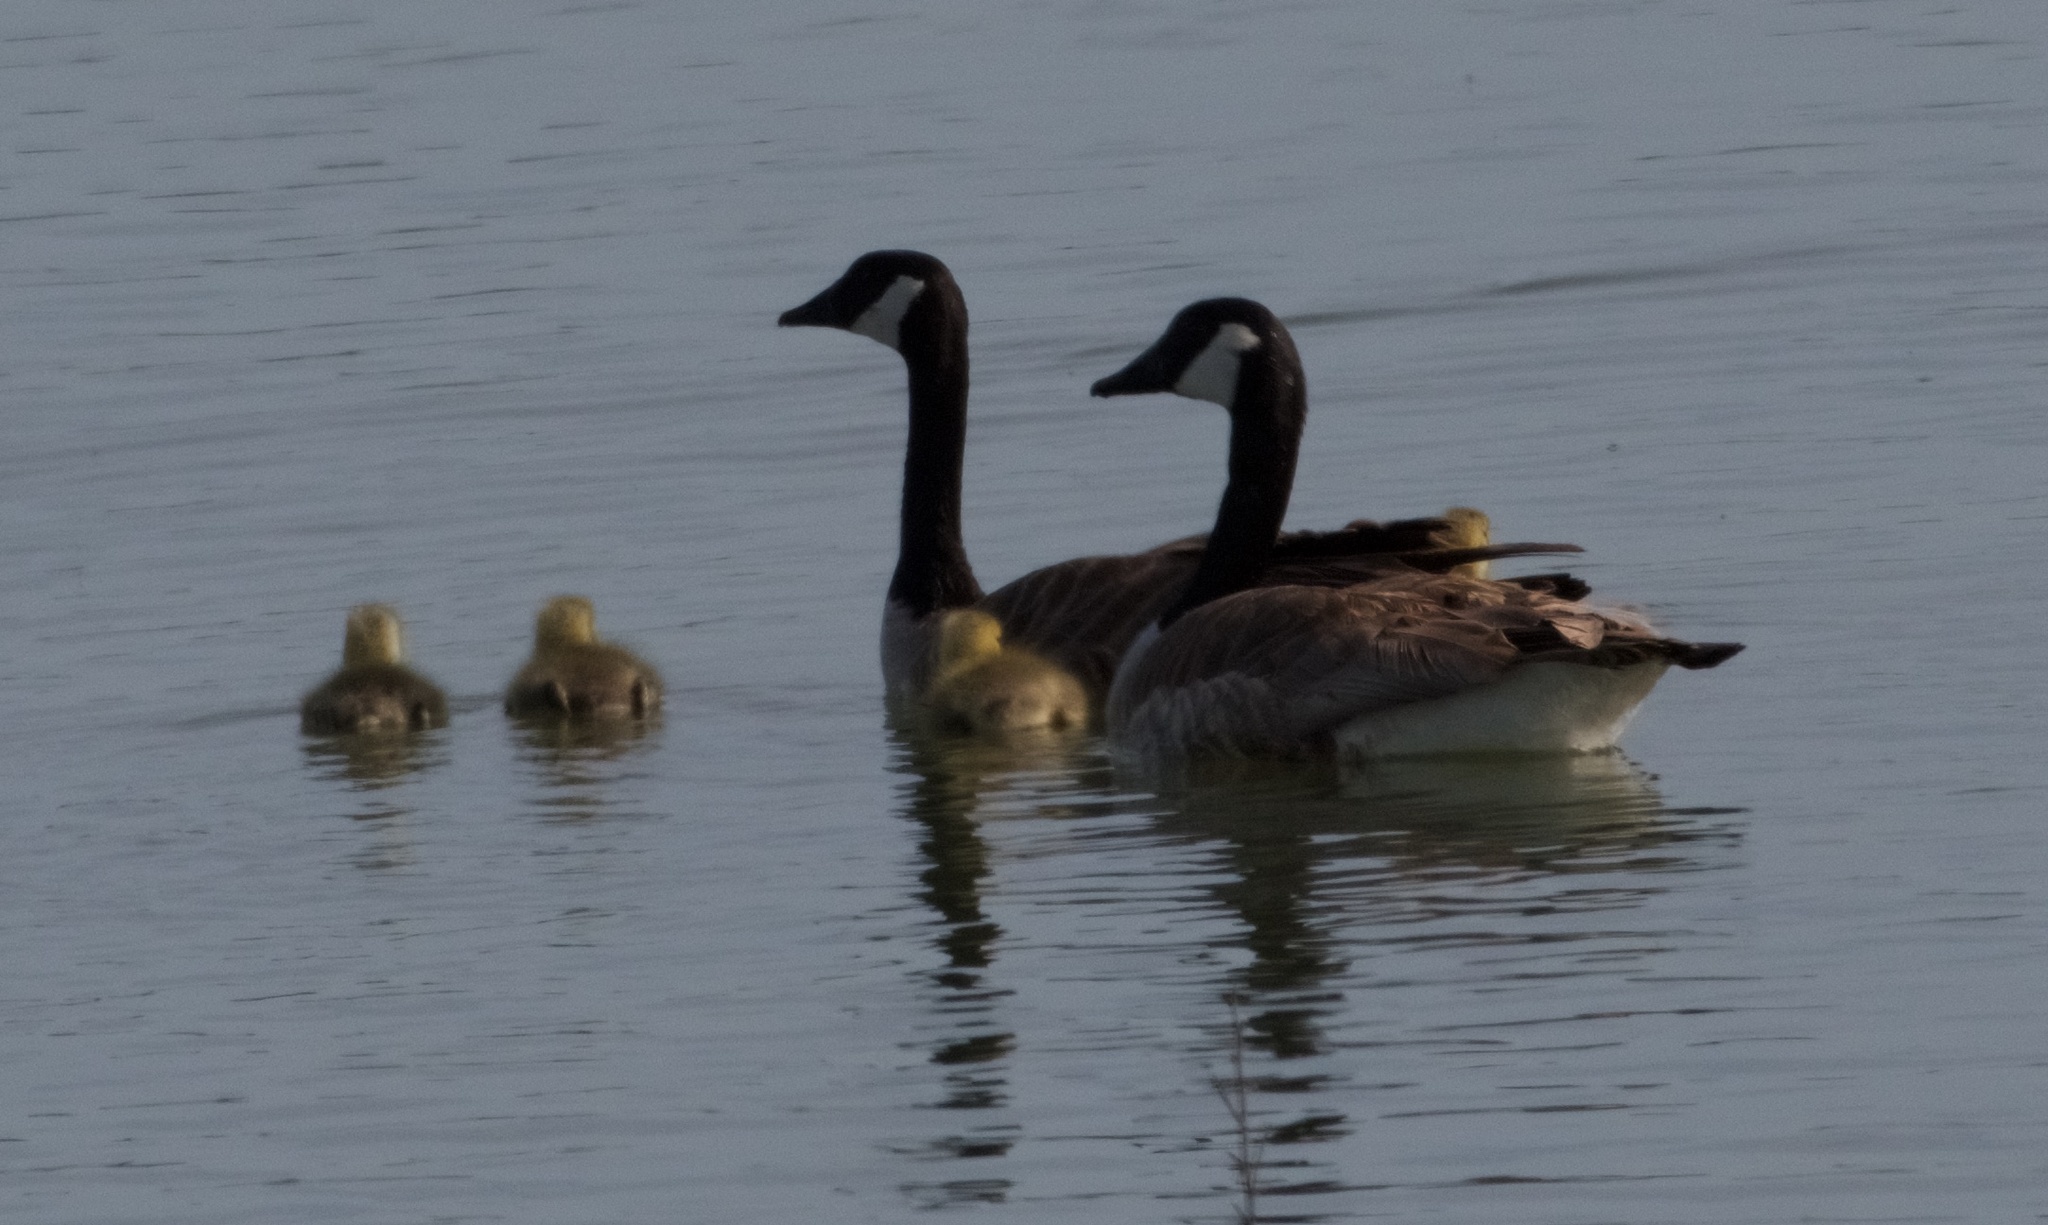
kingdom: Animalia
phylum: Chordata
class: Aves
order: Anseriformes
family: Anatidae
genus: Branta
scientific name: Branta canadensis
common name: Canada goose
